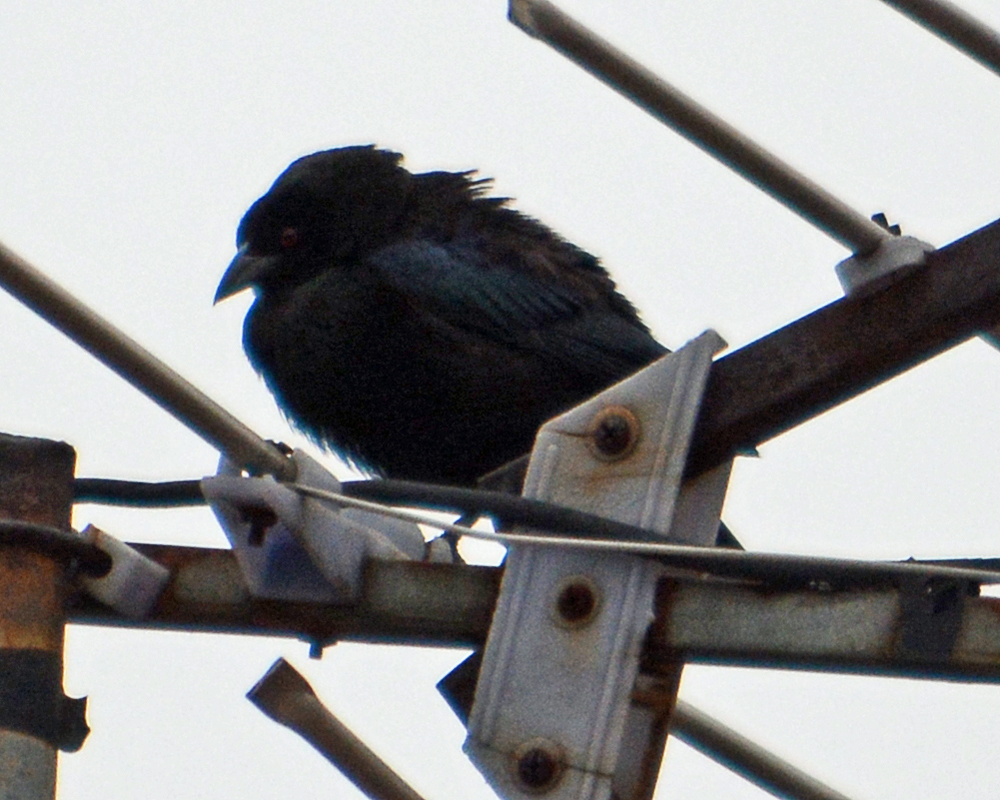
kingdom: Animalia
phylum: Chordata
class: Aves
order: Passeriformes
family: Icteridae
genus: Molothrus
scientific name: Molothrus aeneus
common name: Bronzed cowbird
